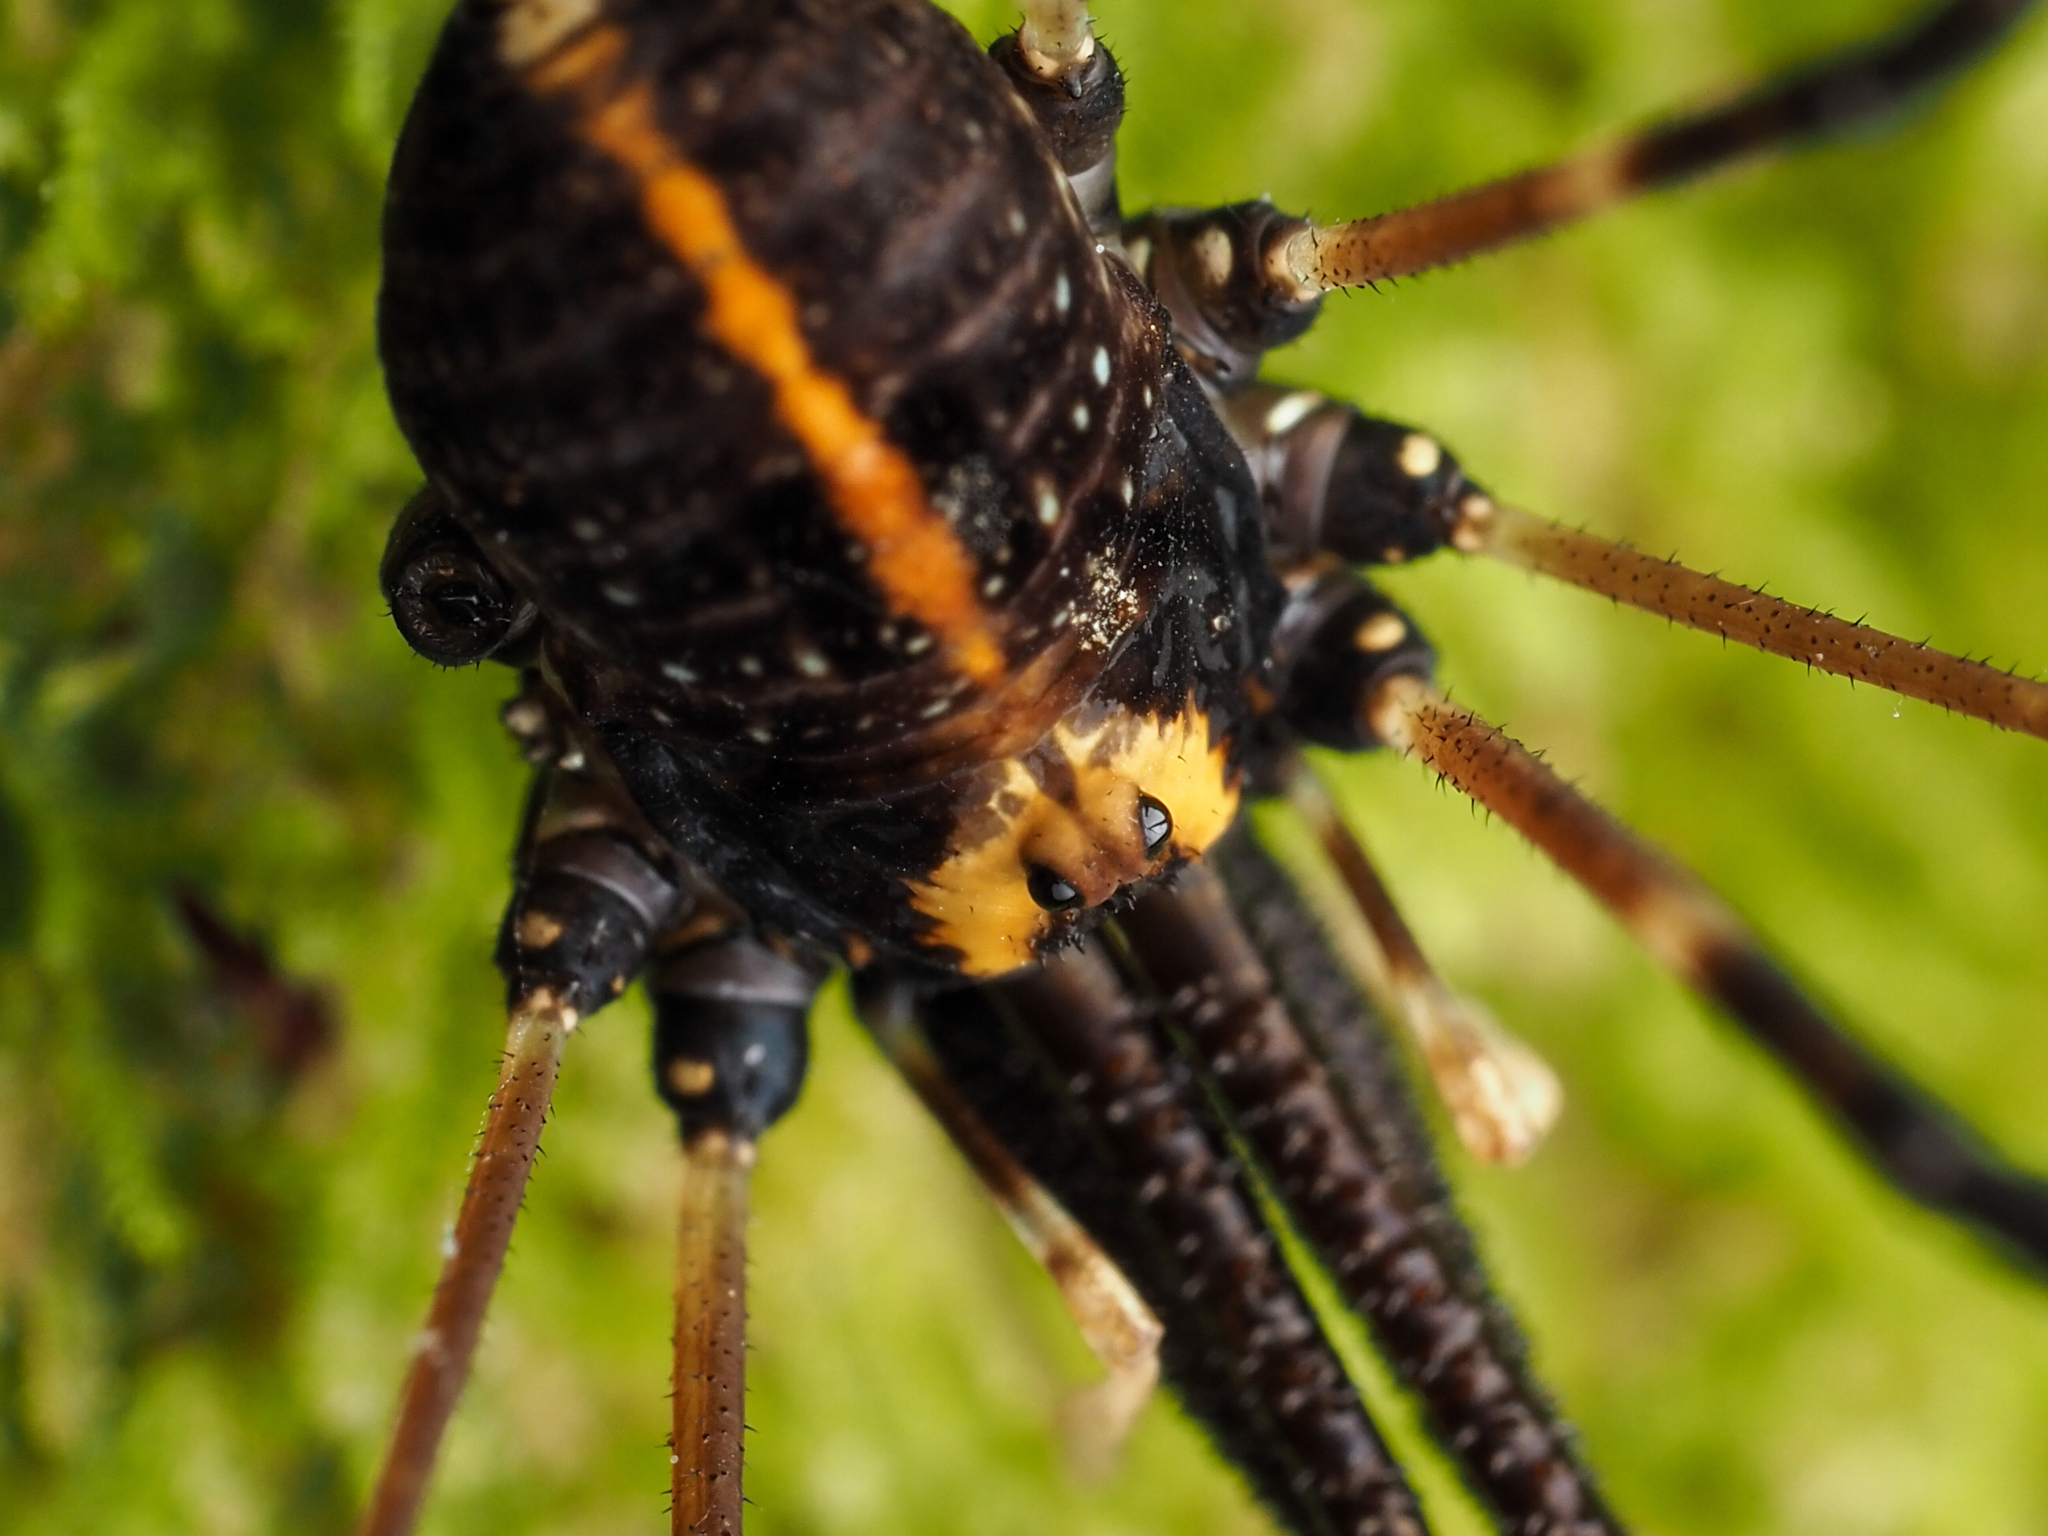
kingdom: Animalia
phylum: Arthropoda
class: Arachnida
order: Opiliones
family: Neopilionidae
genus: Forsteropsalis
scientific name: Forsteropsalis pureora
